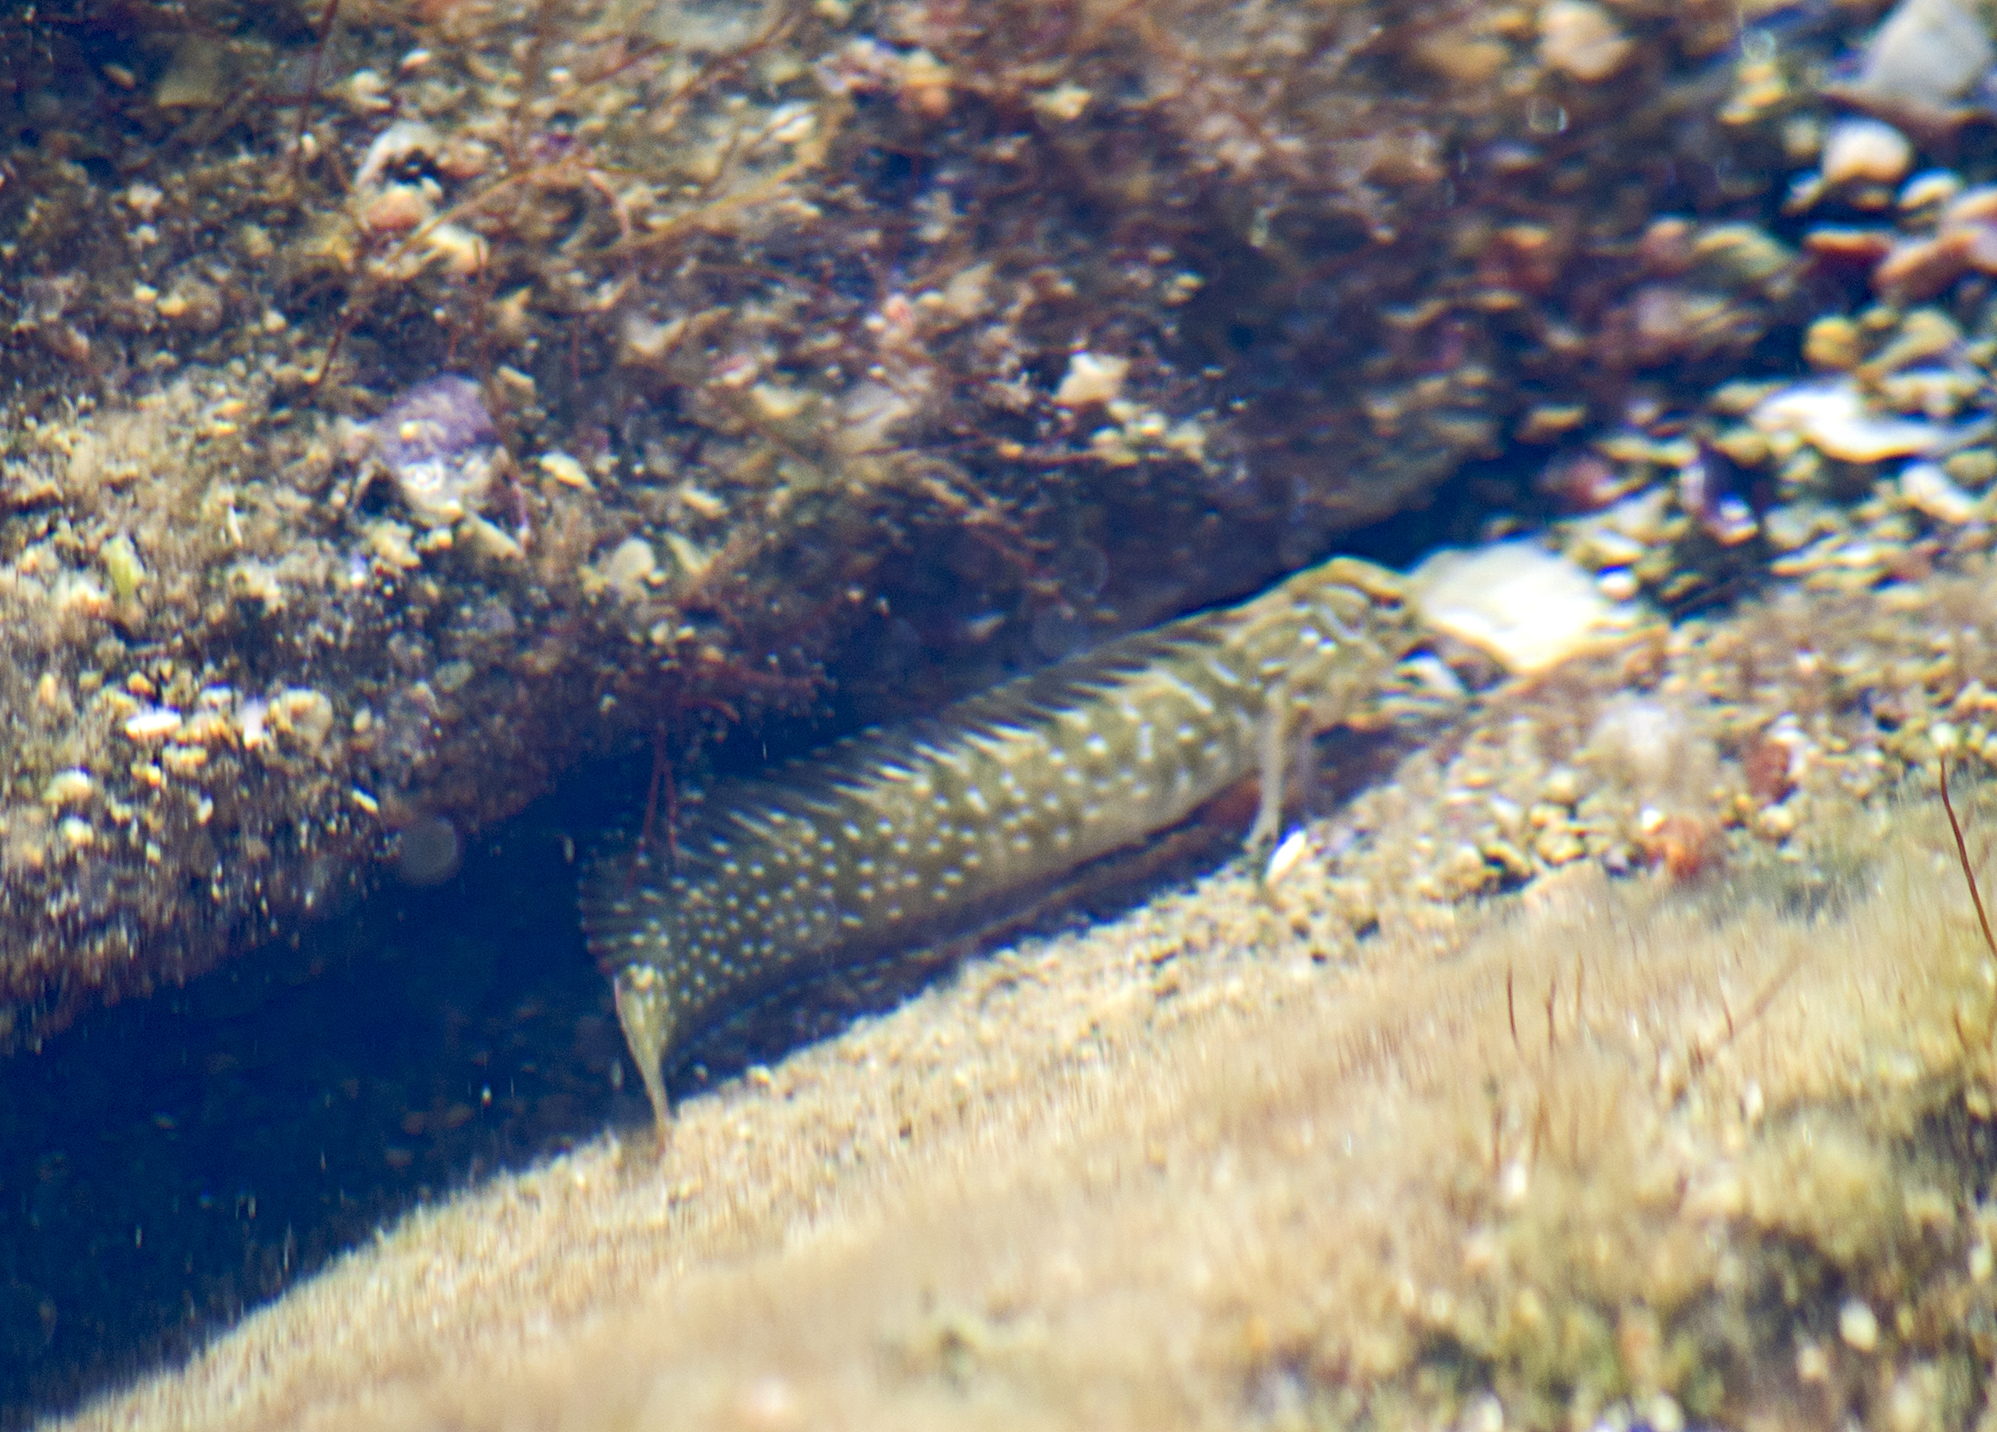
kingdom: Animalia
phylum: Chordata
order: Perciformes
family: Blenniidae
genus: Salaria
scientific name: Salaria pavo
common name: Peacock blenny
